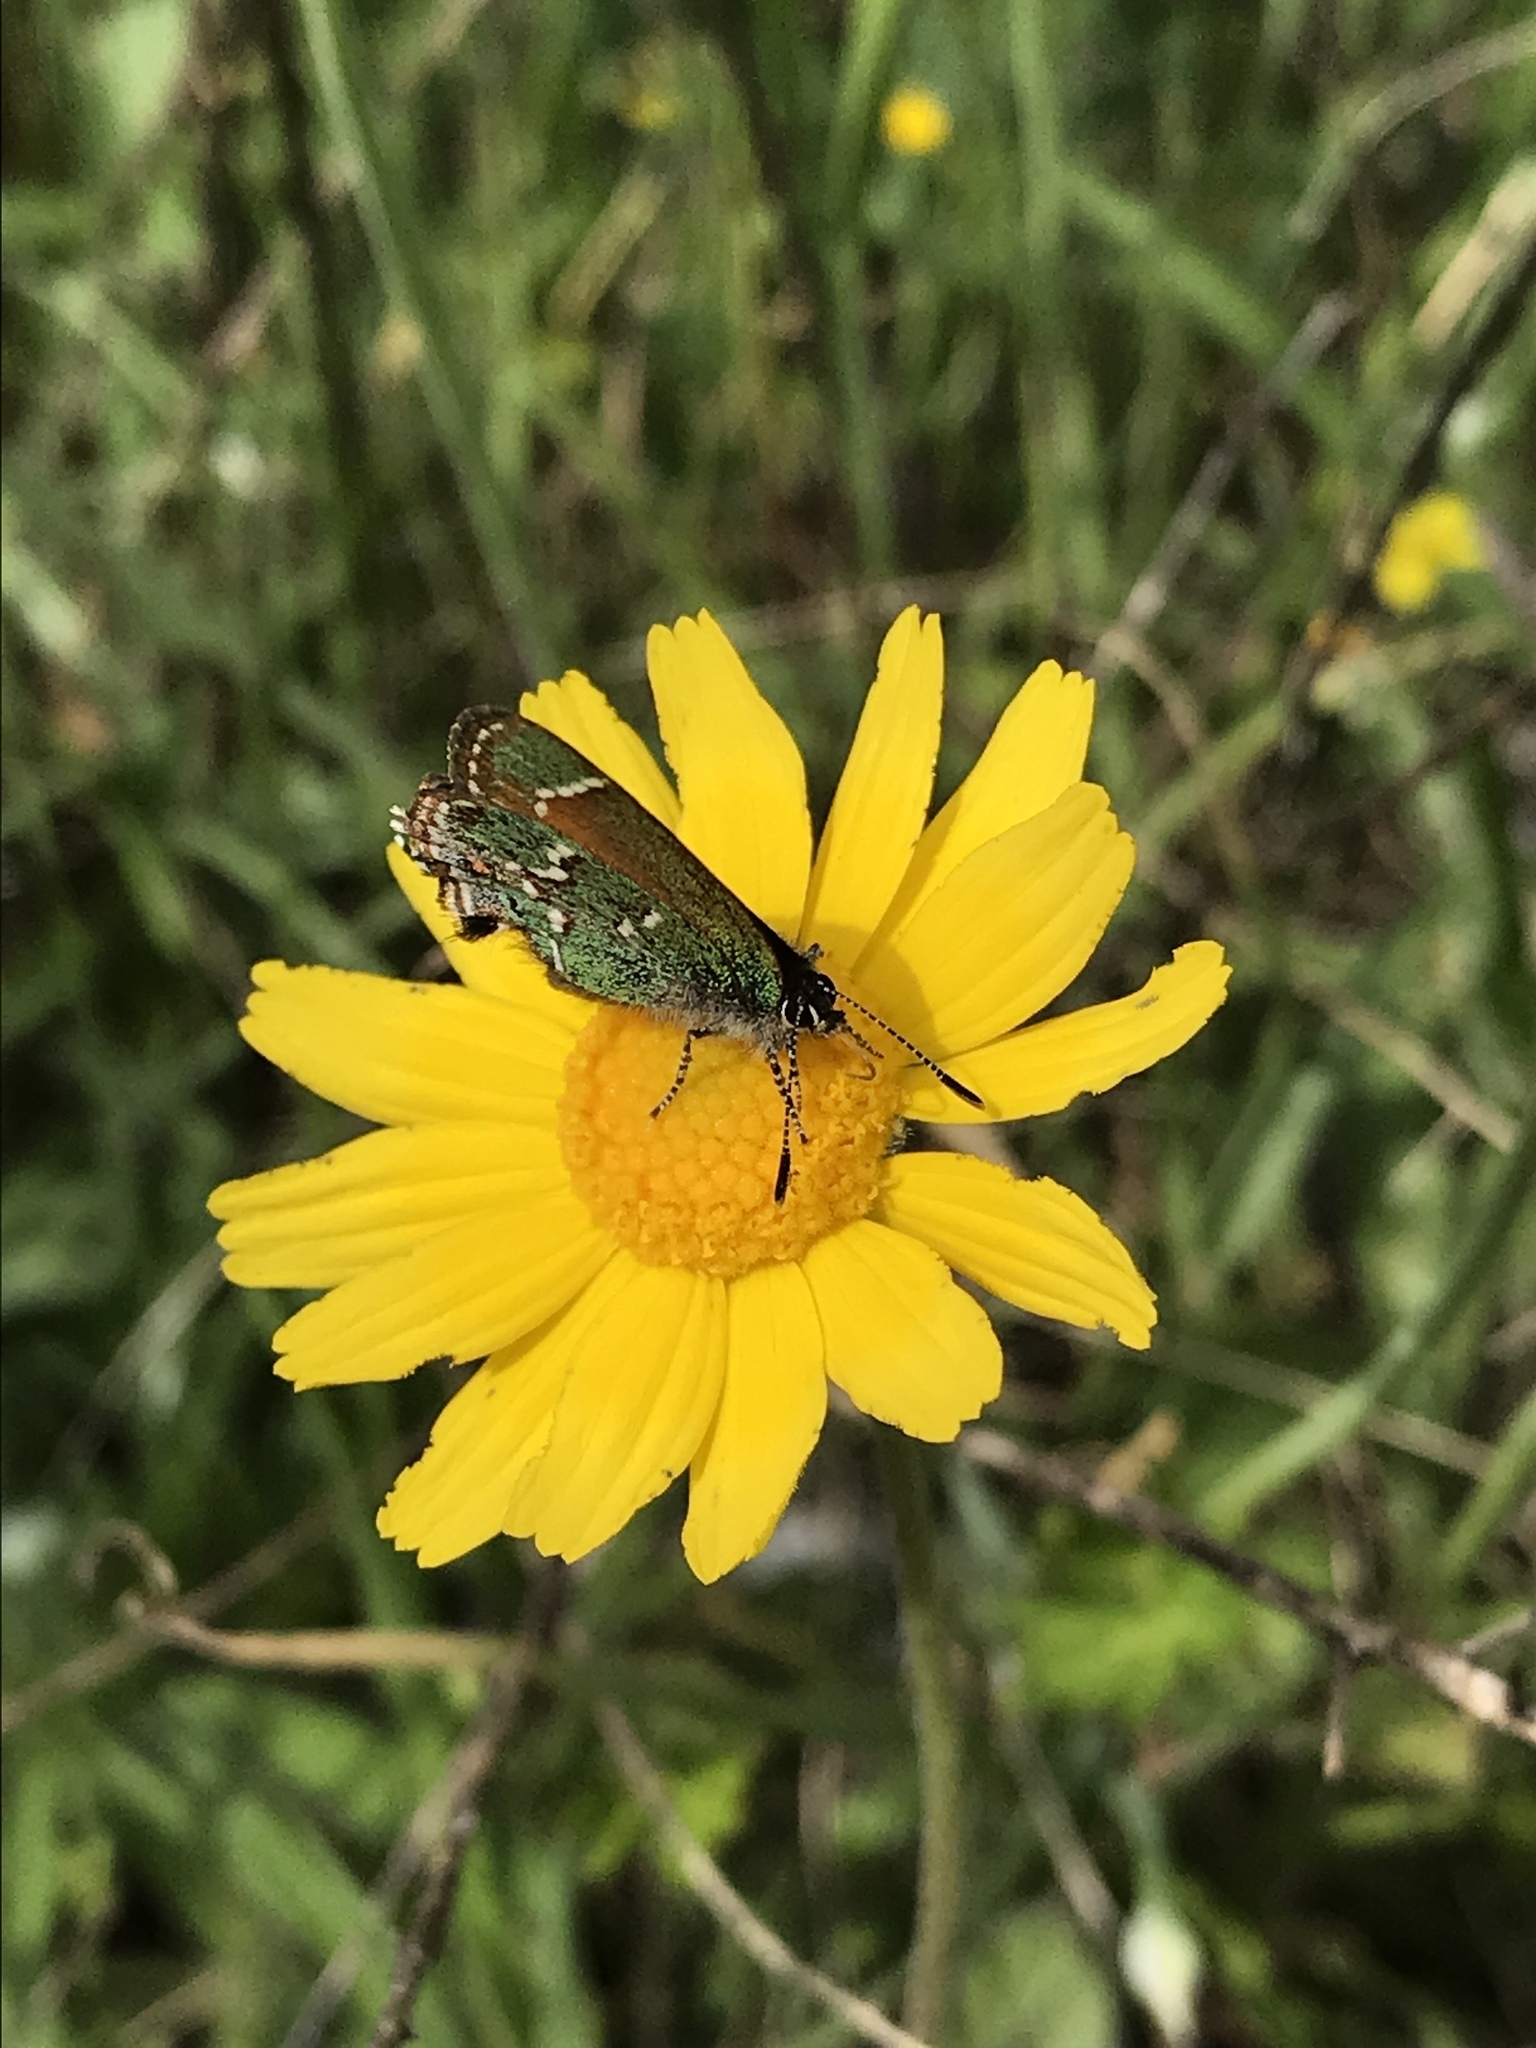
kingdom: Animalia
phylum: Arthropoda
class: Insecta
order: Lepidoptera
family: Lycaenidae
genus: Mitoura
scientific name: Mitoura gryneus
